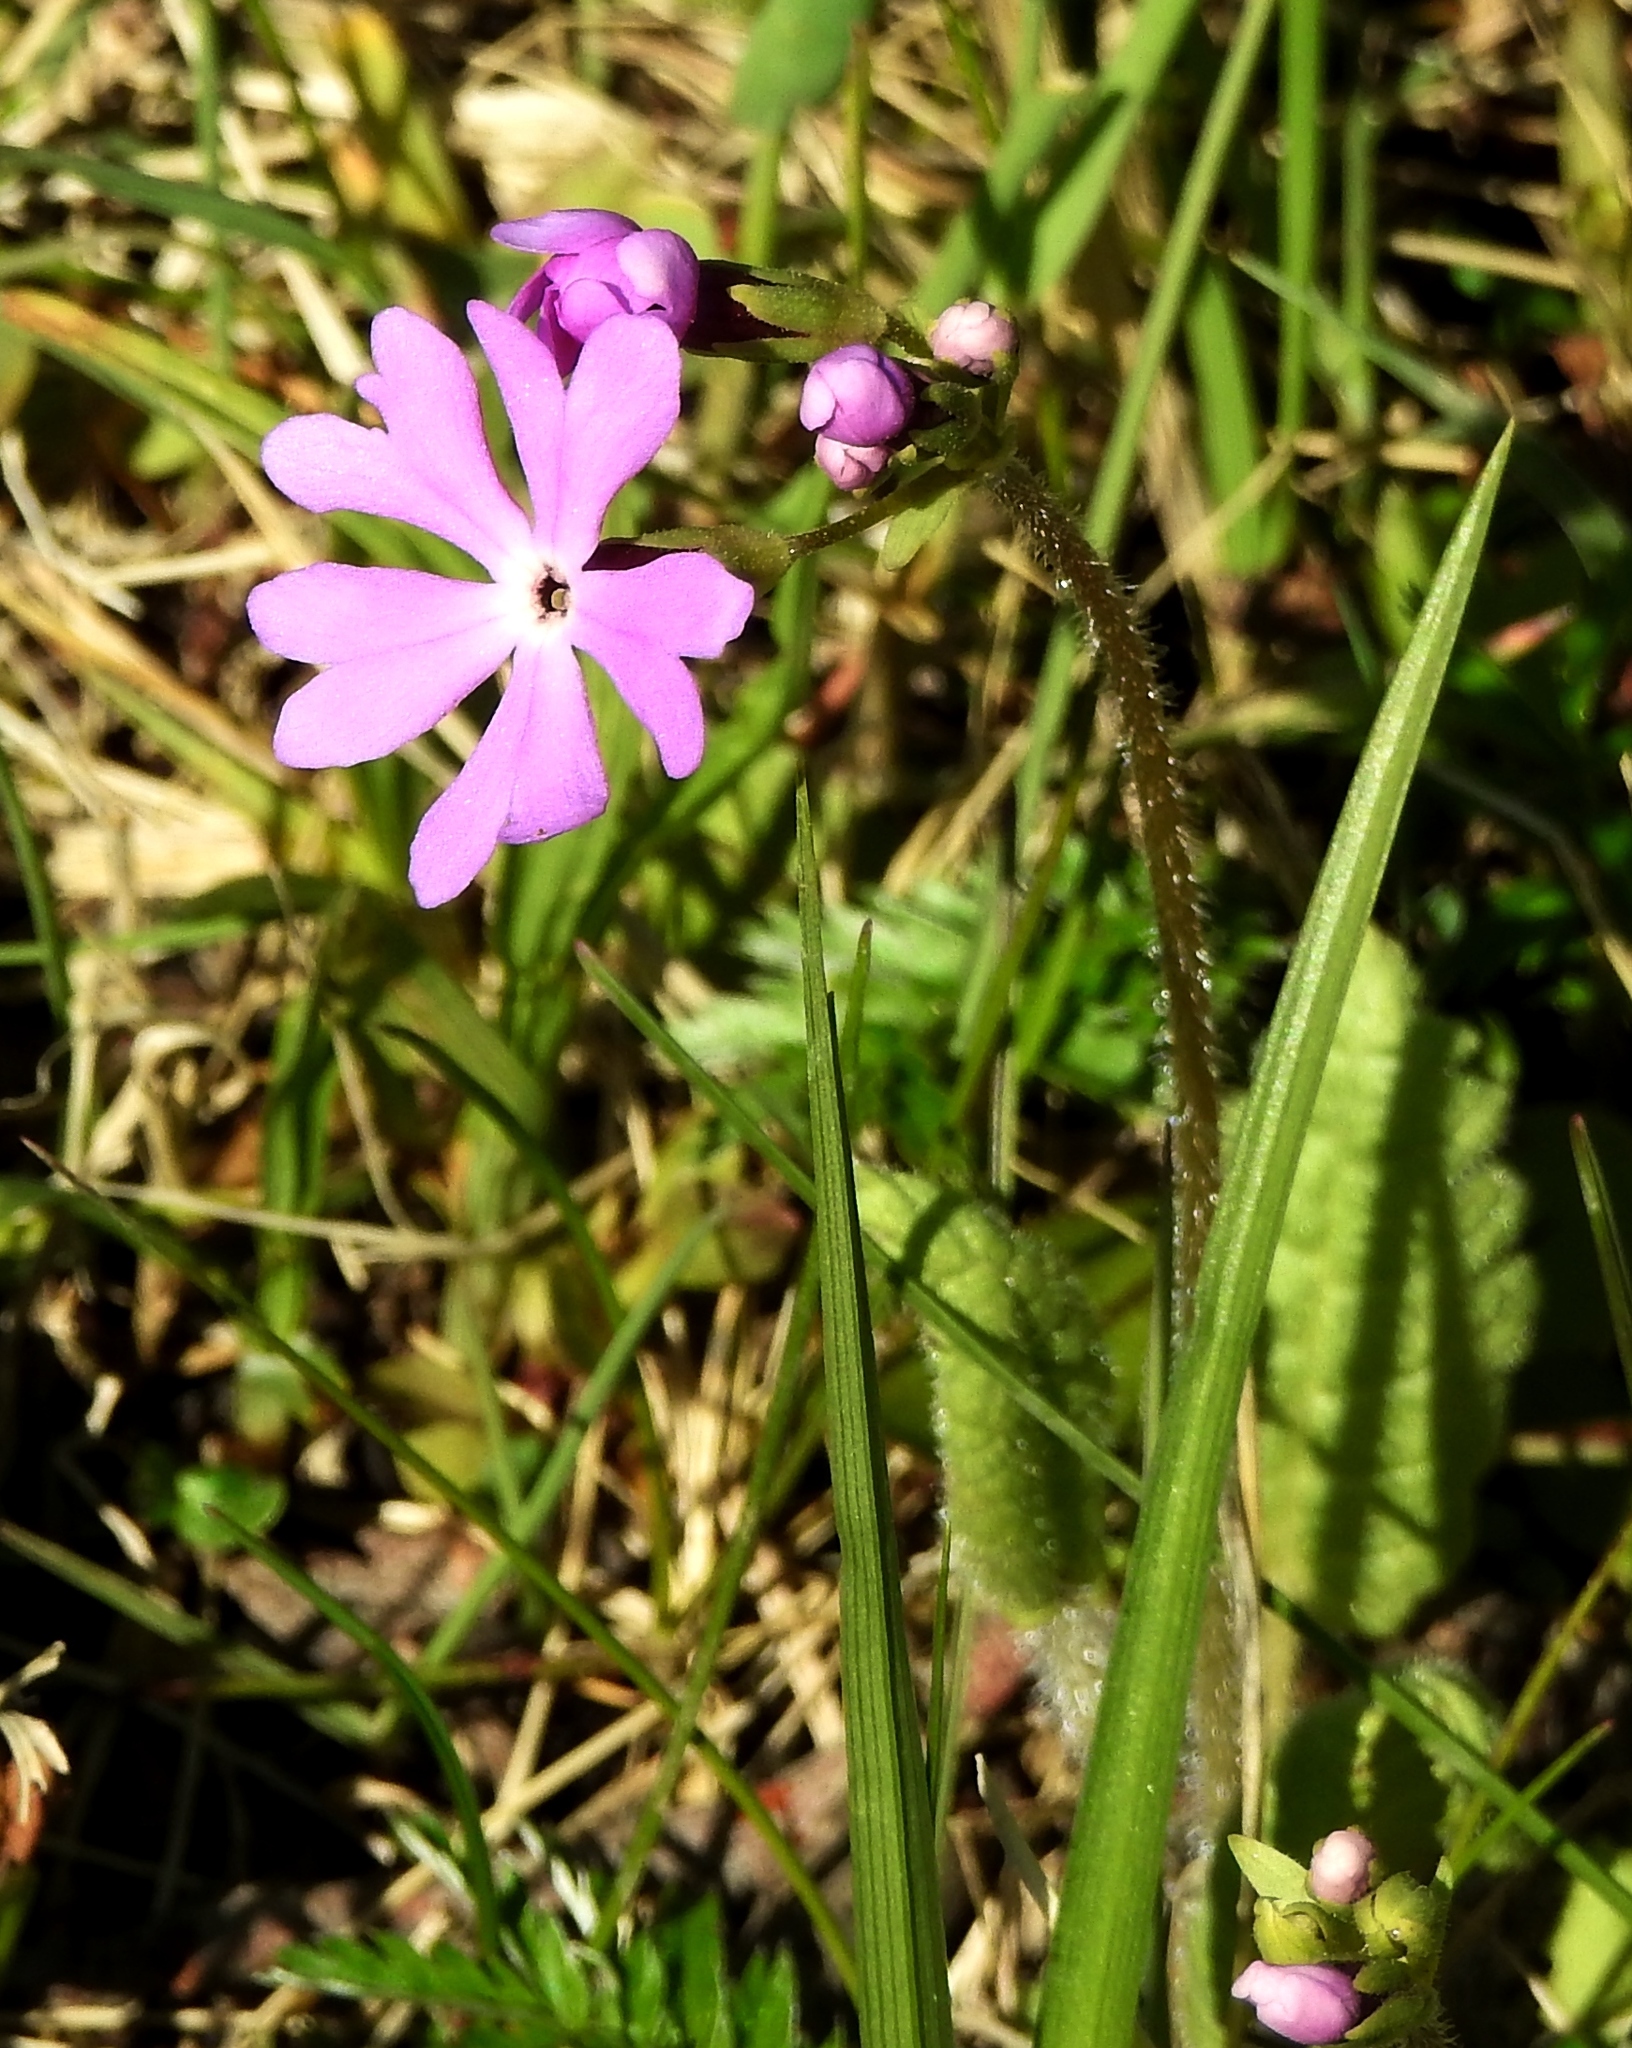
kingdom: Plantae
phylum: Tracheophyta
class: Magnoliopsida
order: Ericales
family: Primulaceae
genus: Primula
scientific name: Primula sieboldii
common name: Japanese primrose
